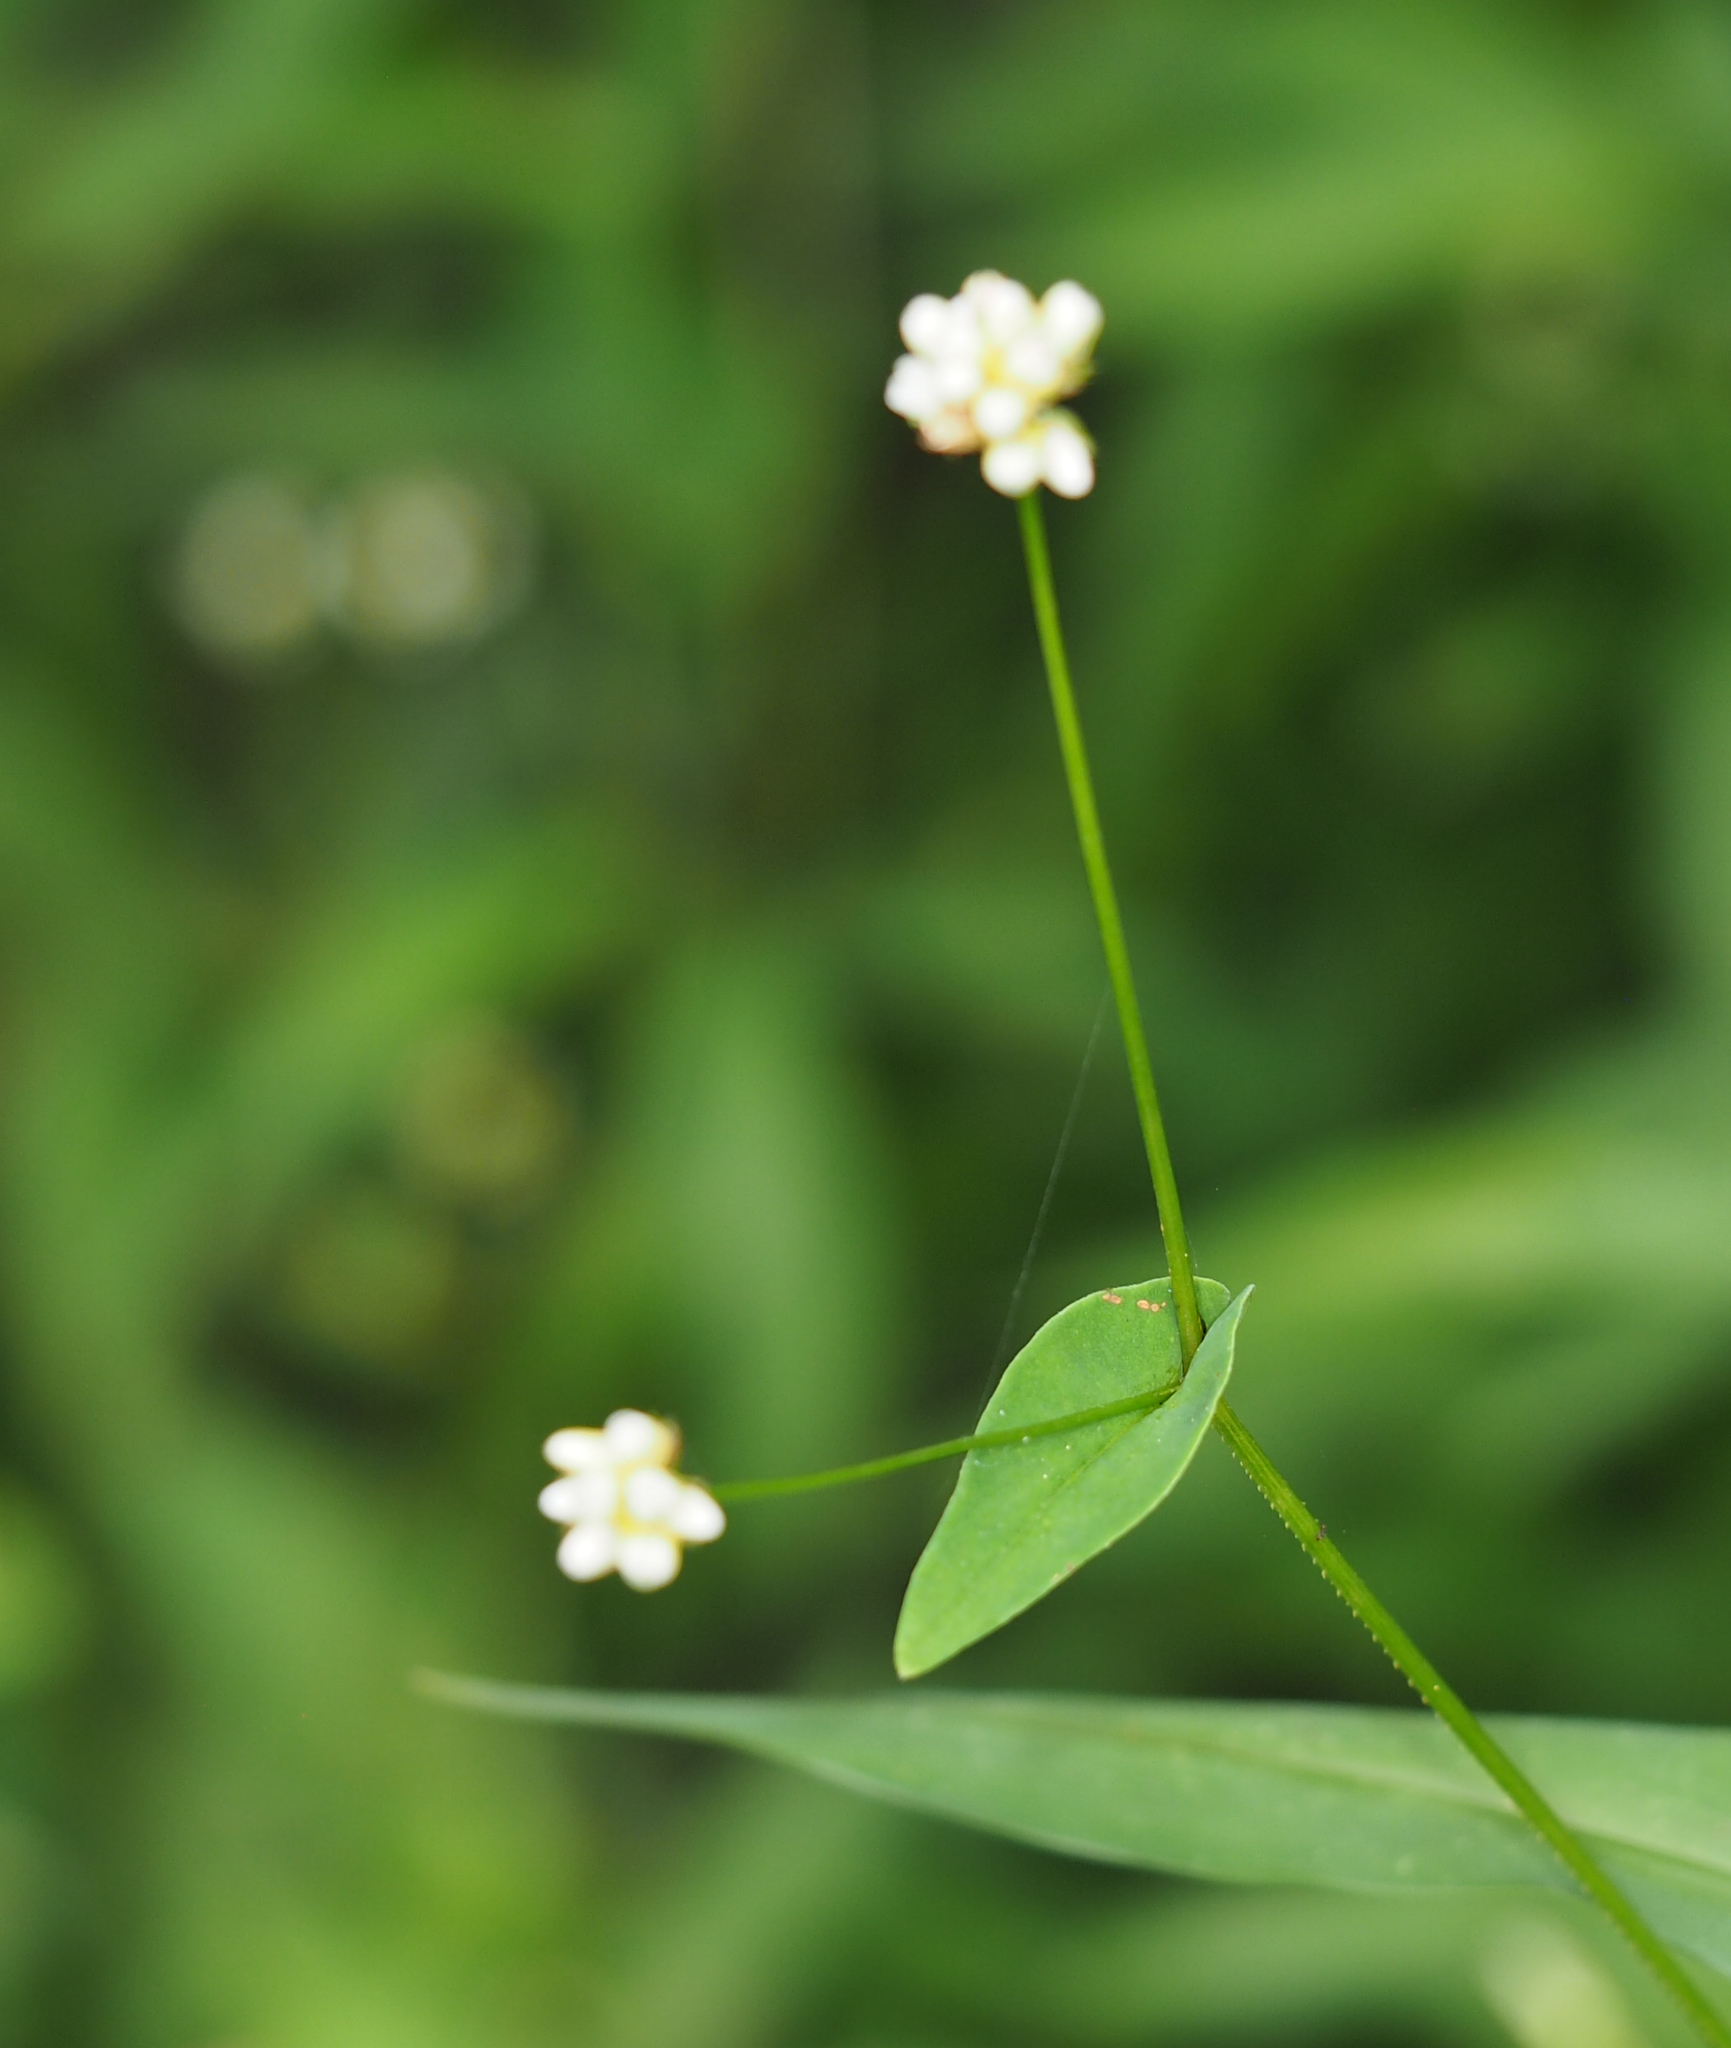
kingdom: Plantae
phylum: Tracheophyta
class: Magnoliopsida
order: Caryophyllales
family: Polygonaceae
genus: Persicaria
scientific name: Persicaria sagittata
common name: American tearthumb
